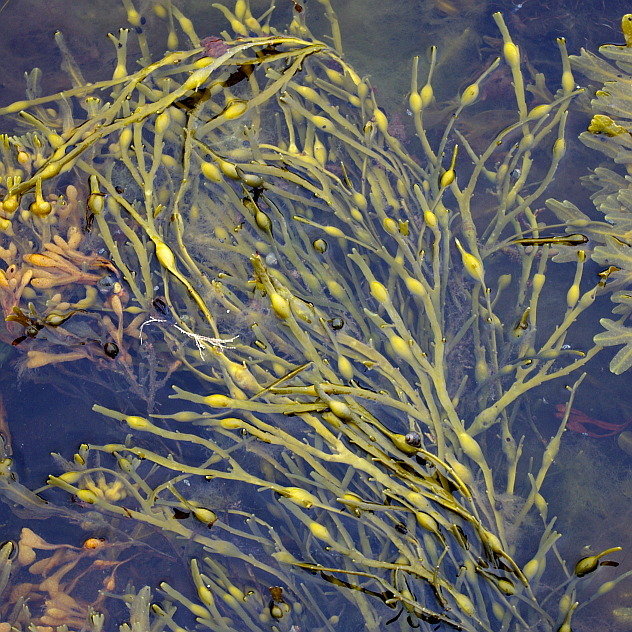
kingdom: Chromista
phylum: Ochrophyta
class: Phaeophyceae
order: Fucales
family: Fucaceae
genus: Ascophyllum
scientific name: Ascophyllum nodosum
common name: Knotted wrack
